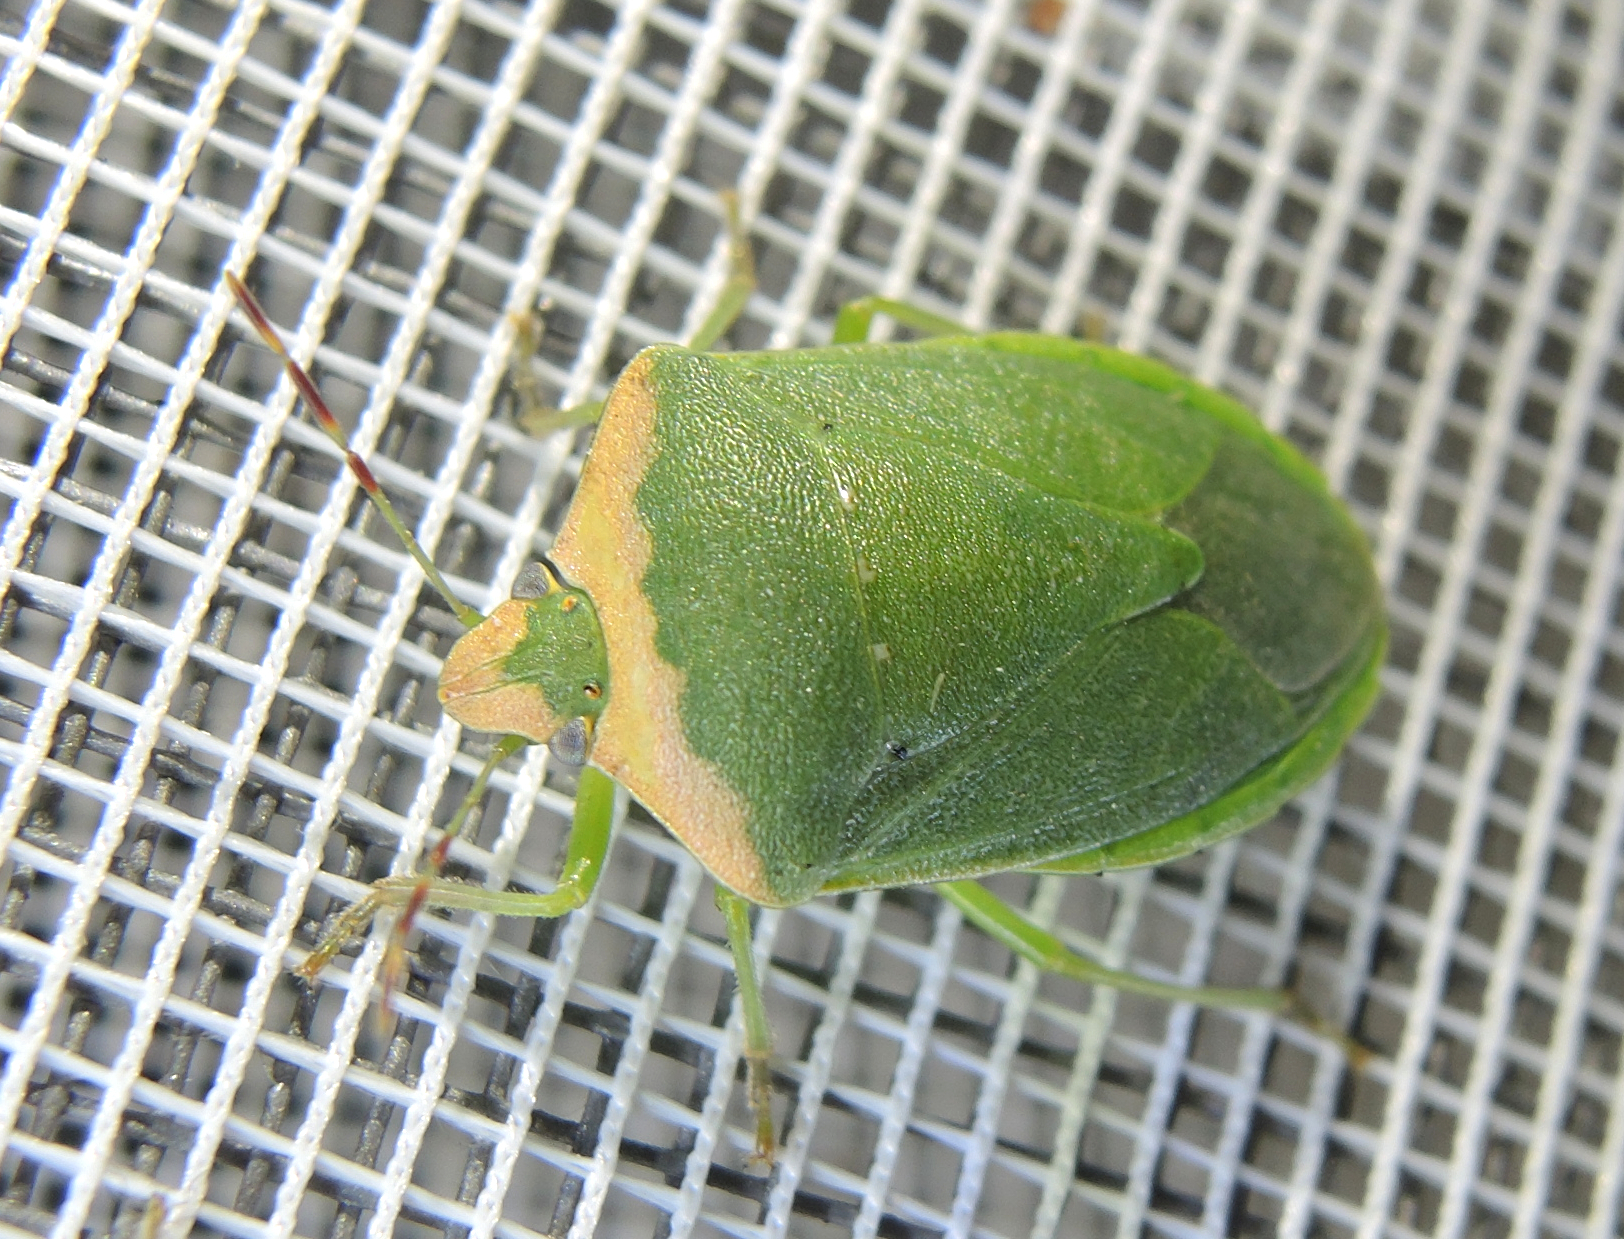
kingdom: Animalia
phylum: Arthropoda
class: Insecta
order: Hemiptera
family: Pentatomidae
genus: Nezara
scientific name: Nezara viridula
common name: Southern green stink bug
